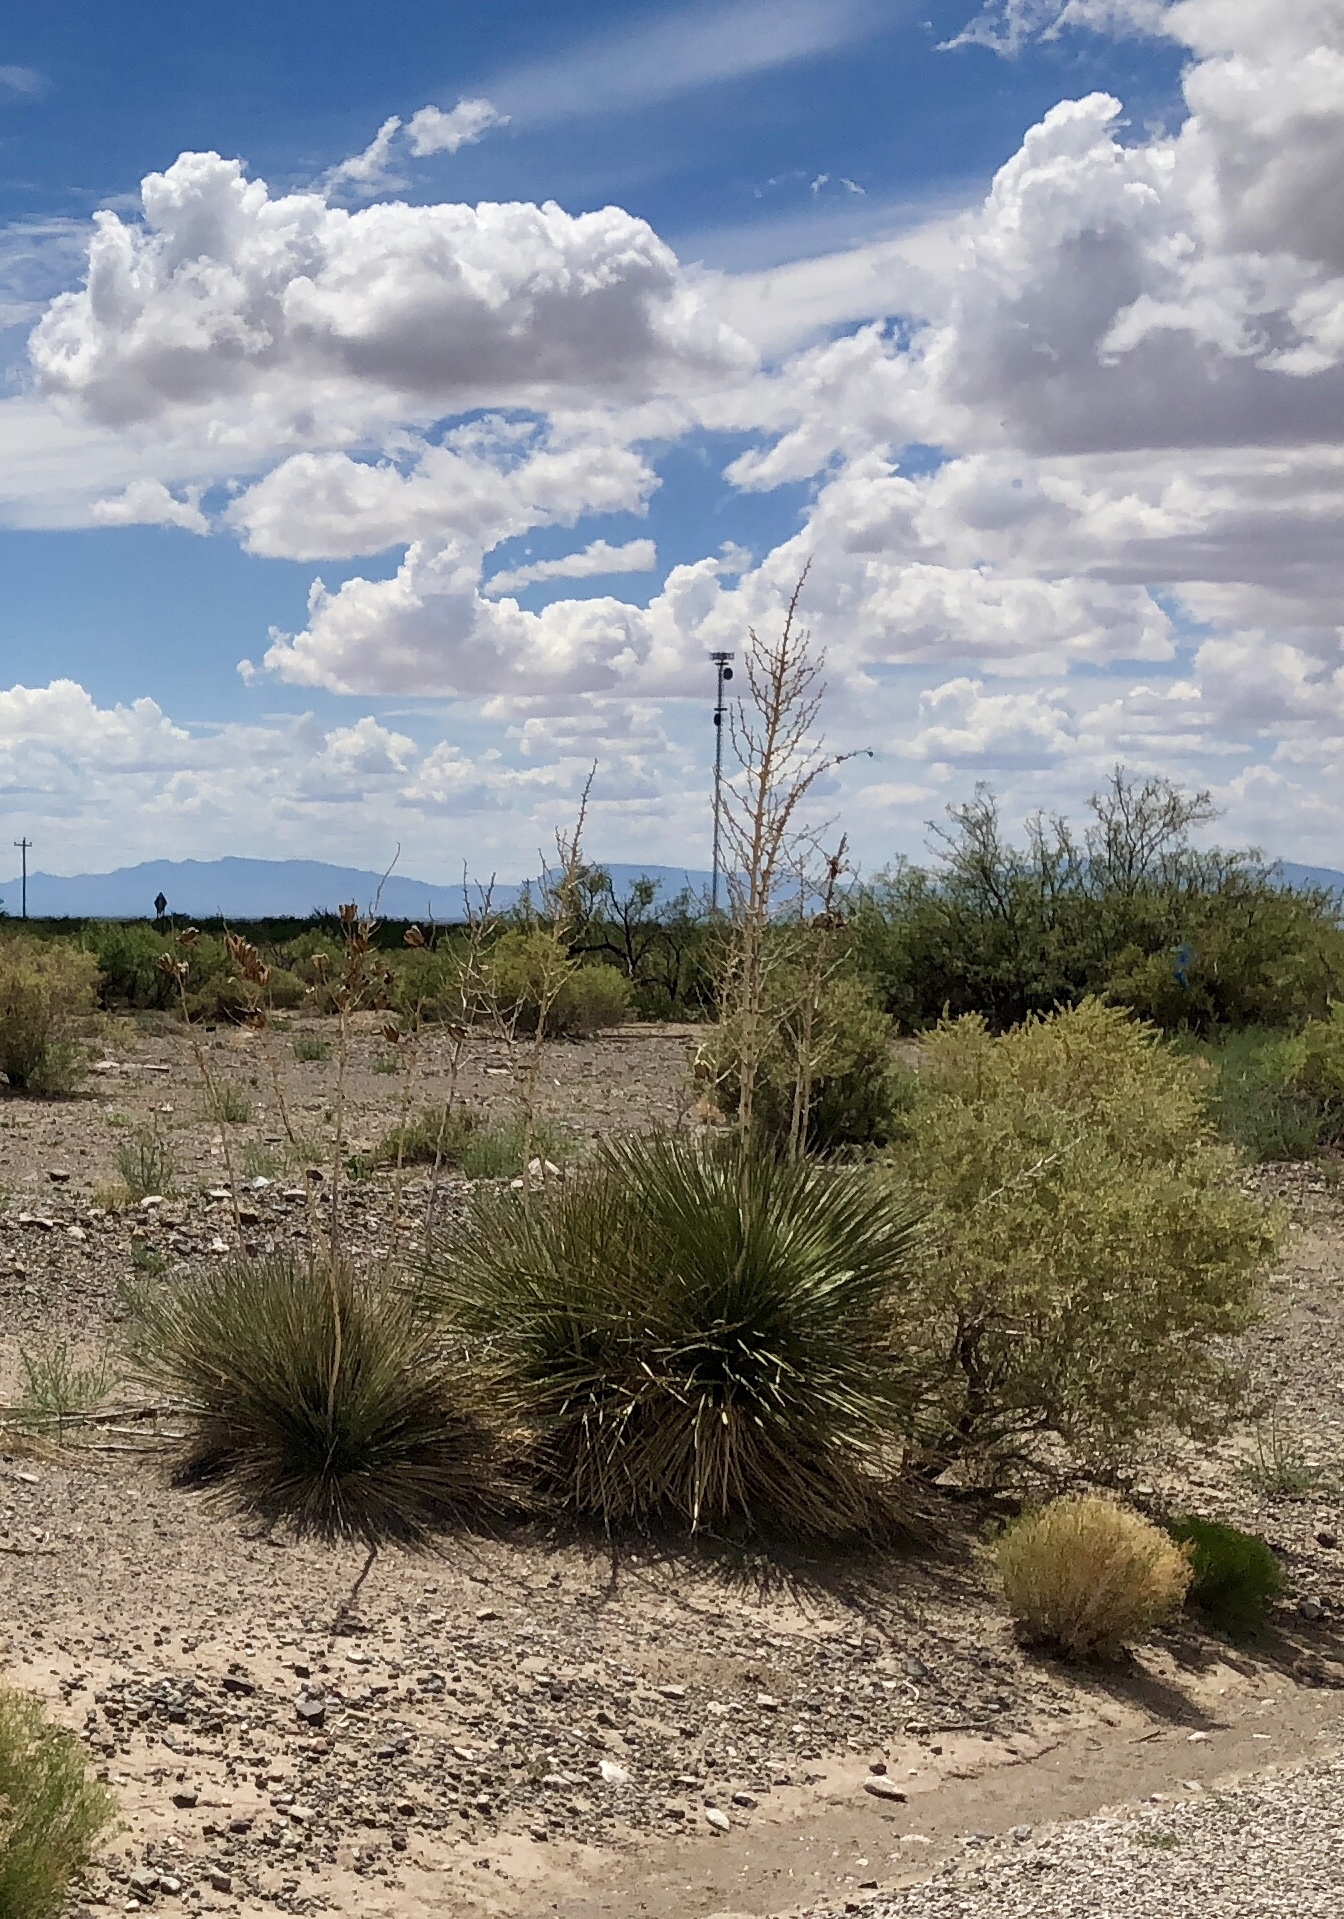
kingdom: Plantae
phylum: Tracheophyta
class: Liliopsida
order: Asparagales
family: Asparagaceae
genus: Yucca
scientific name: Yucca elata
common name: Palmella
